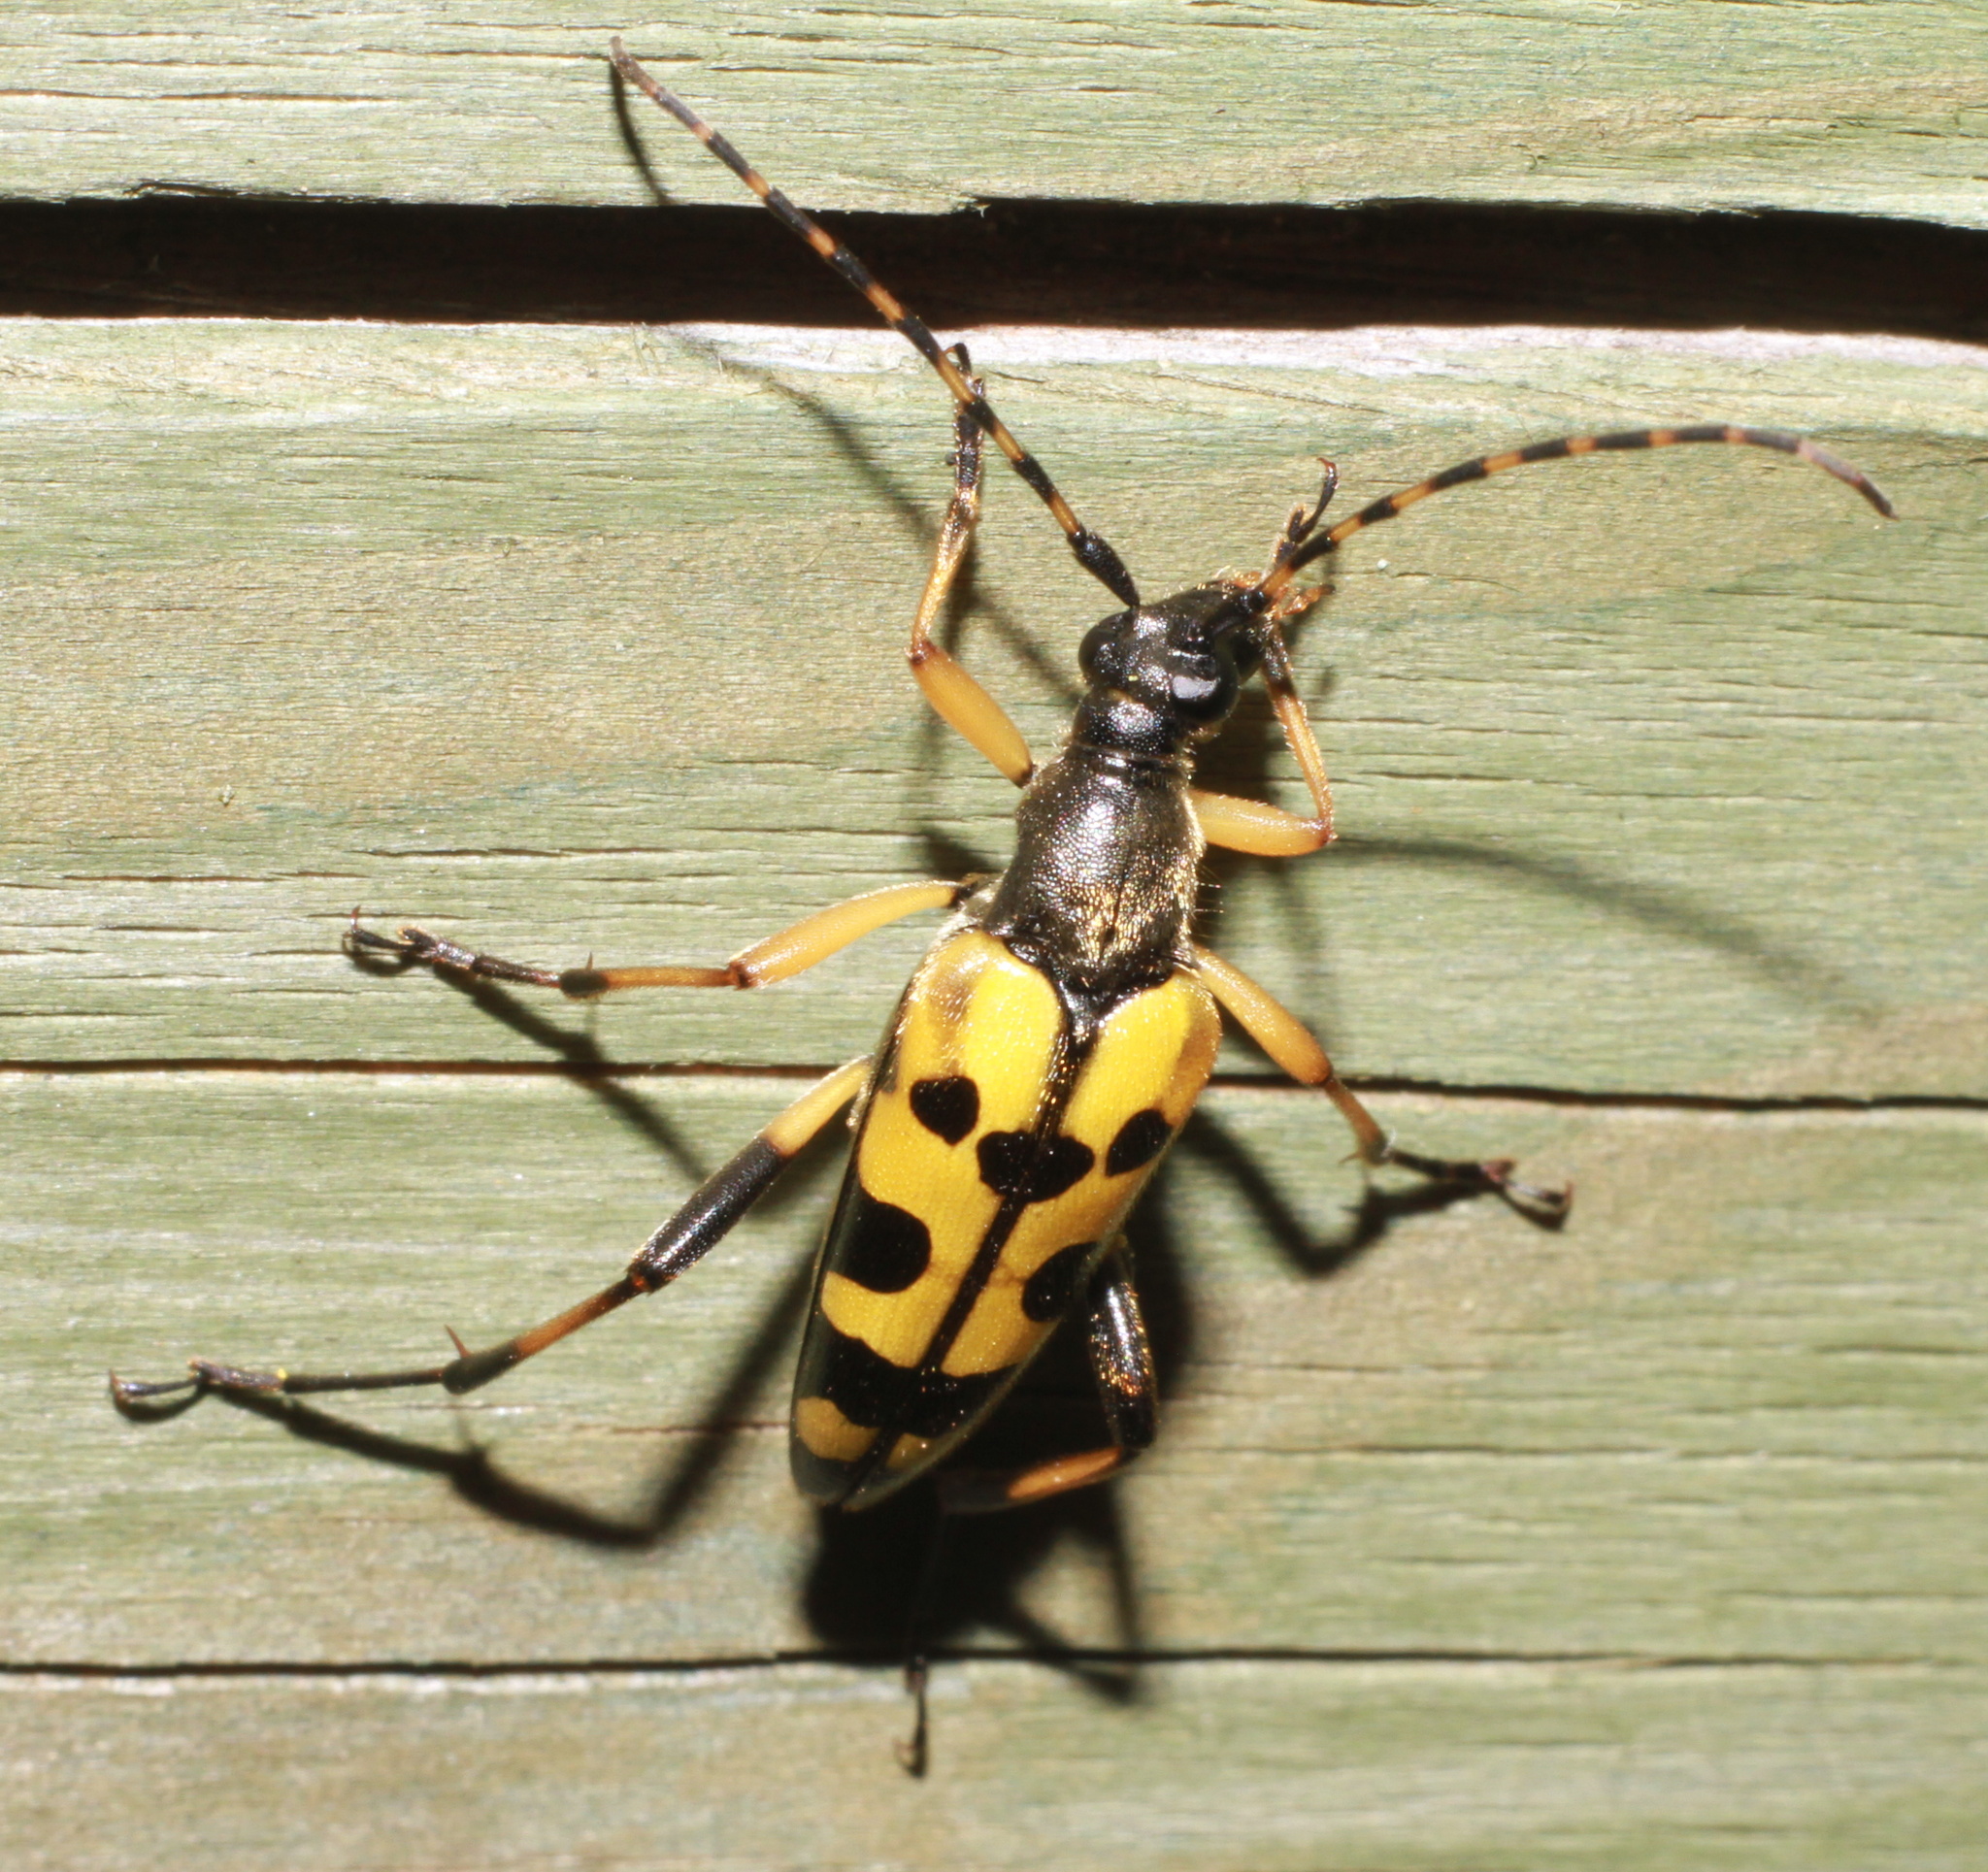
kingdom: Animalia
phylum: Arthropoda
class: Insecta
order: Coleoptera
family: Cerambycidae
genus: Rutpela
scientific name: Rutpela maculata
